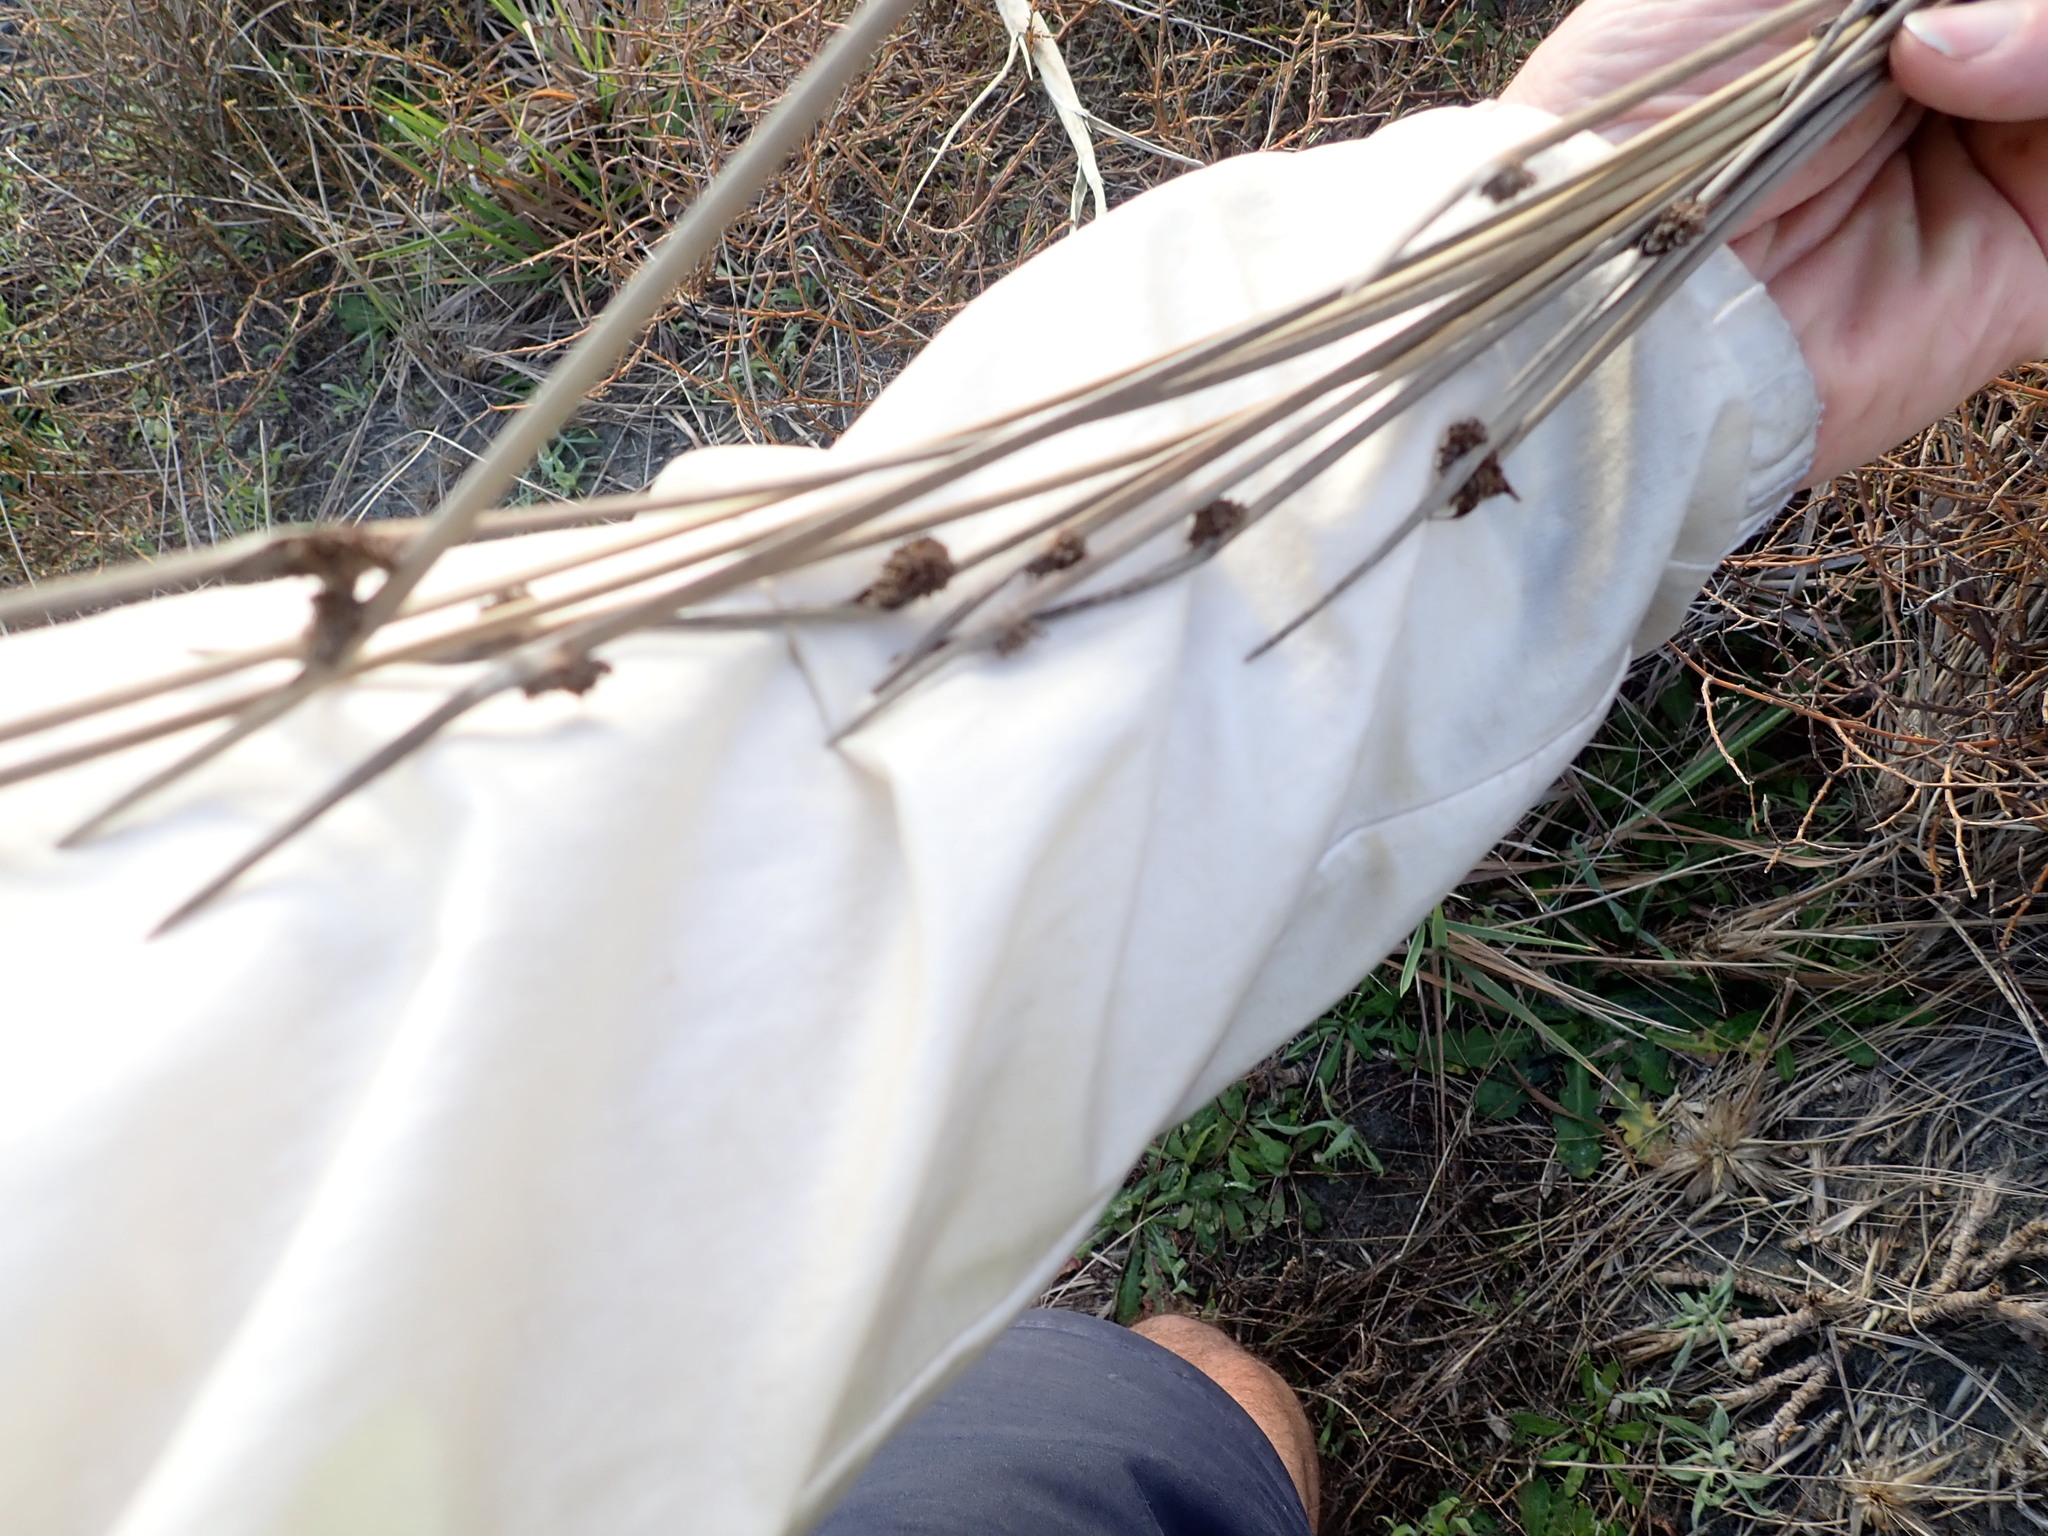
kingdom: Plantae
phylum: Tracheophyta
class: Liliopsida
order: Poales
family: Cyperaceae
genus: Ficinia
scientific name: Ficinia nodosa
